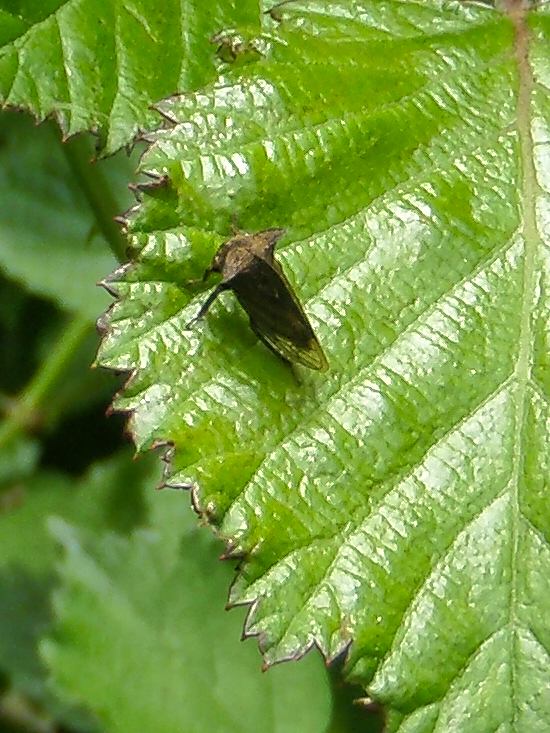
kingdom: Animalia
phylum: Arthropoda
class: Insecta
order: Hemiptera
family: Membracidae
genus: Centrotus
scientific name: Centrotus cornuta
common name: Treehopper
